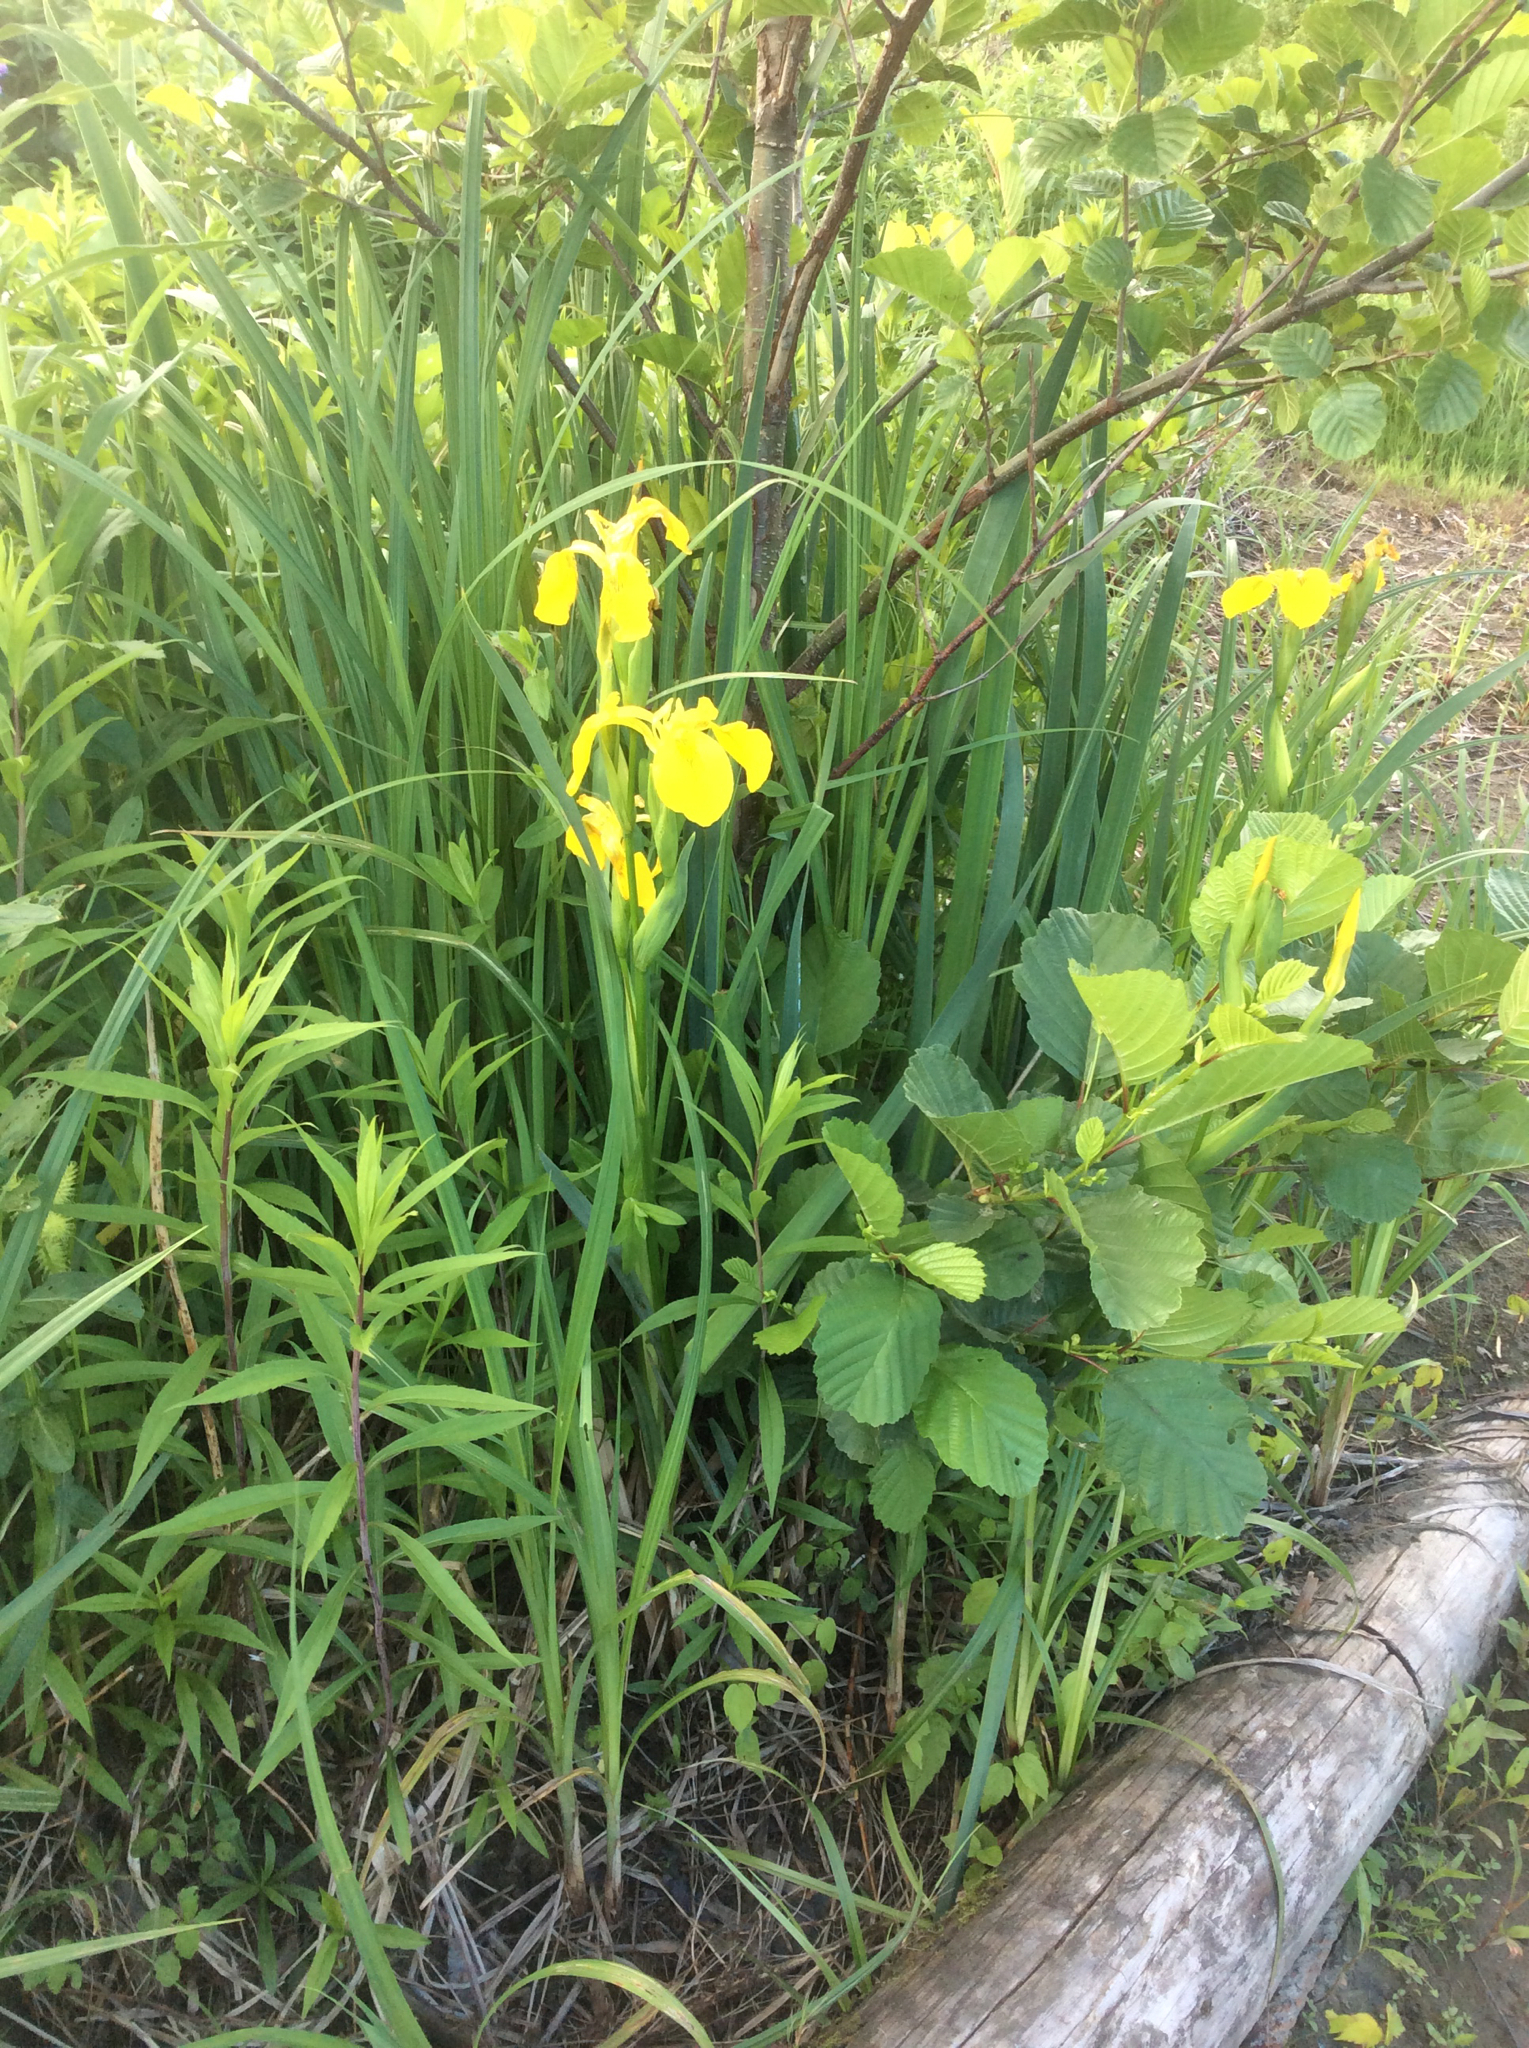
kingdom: Plantae
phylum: Tracheophyta
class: Liliopsida
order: Asparagales
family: Iridaceae
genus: Iris
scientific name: Iris pseudacorus
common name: Yellow flag
